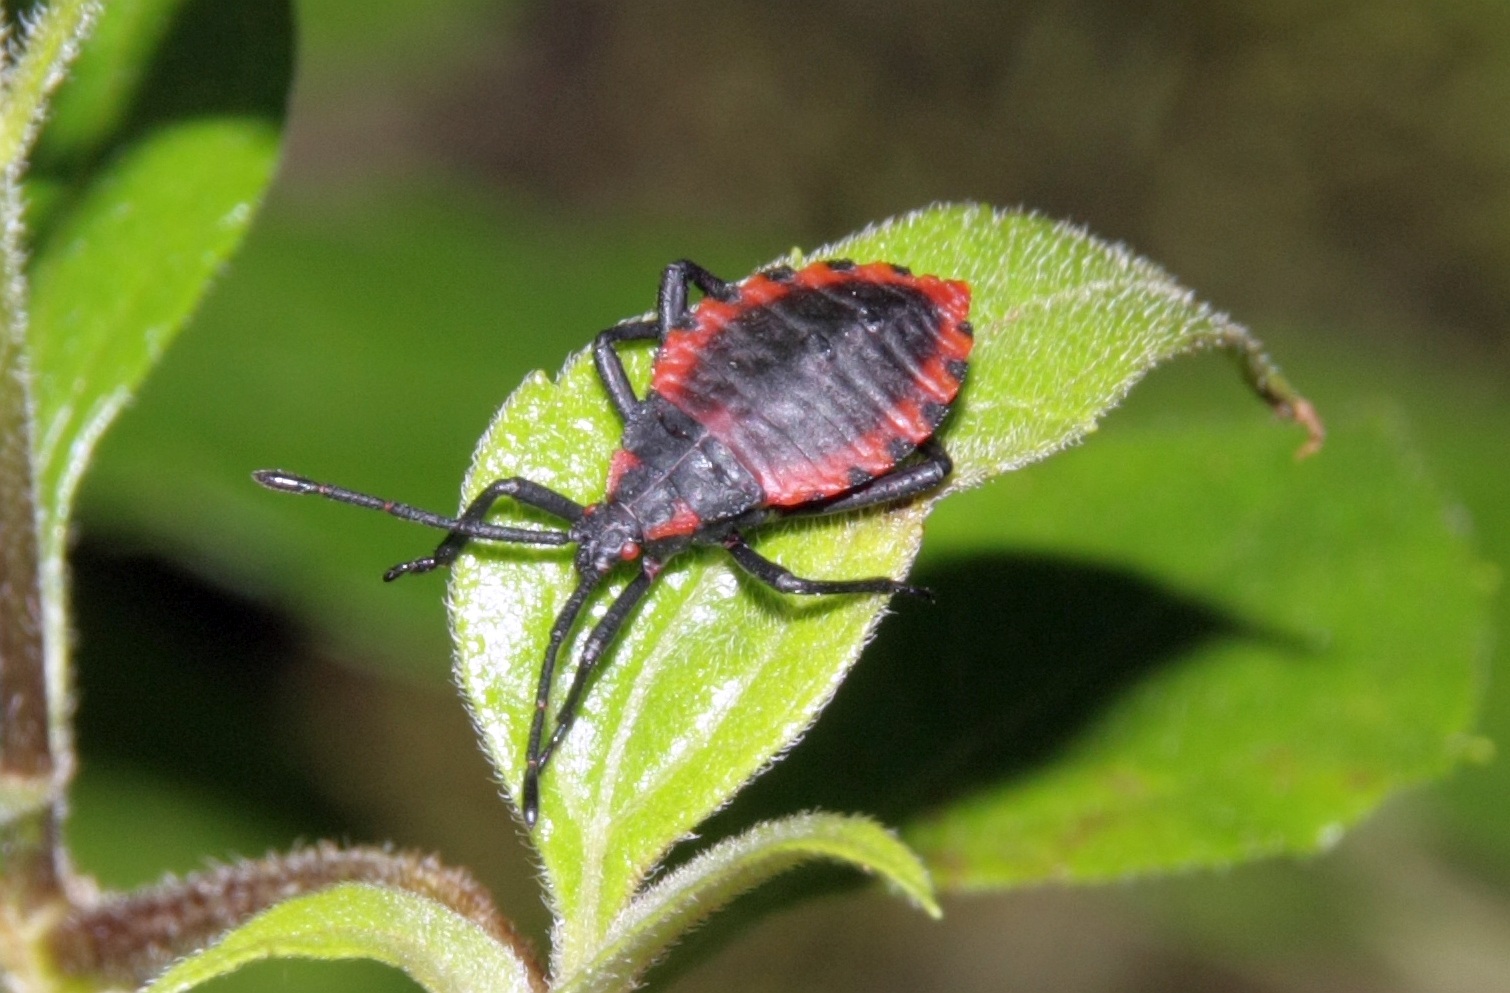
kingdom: Animalia
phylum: Arthropoda
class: Insecta
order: Hemiptera
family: Coreidae
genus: Piezogaster
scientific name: Piezogaster rubropictus
